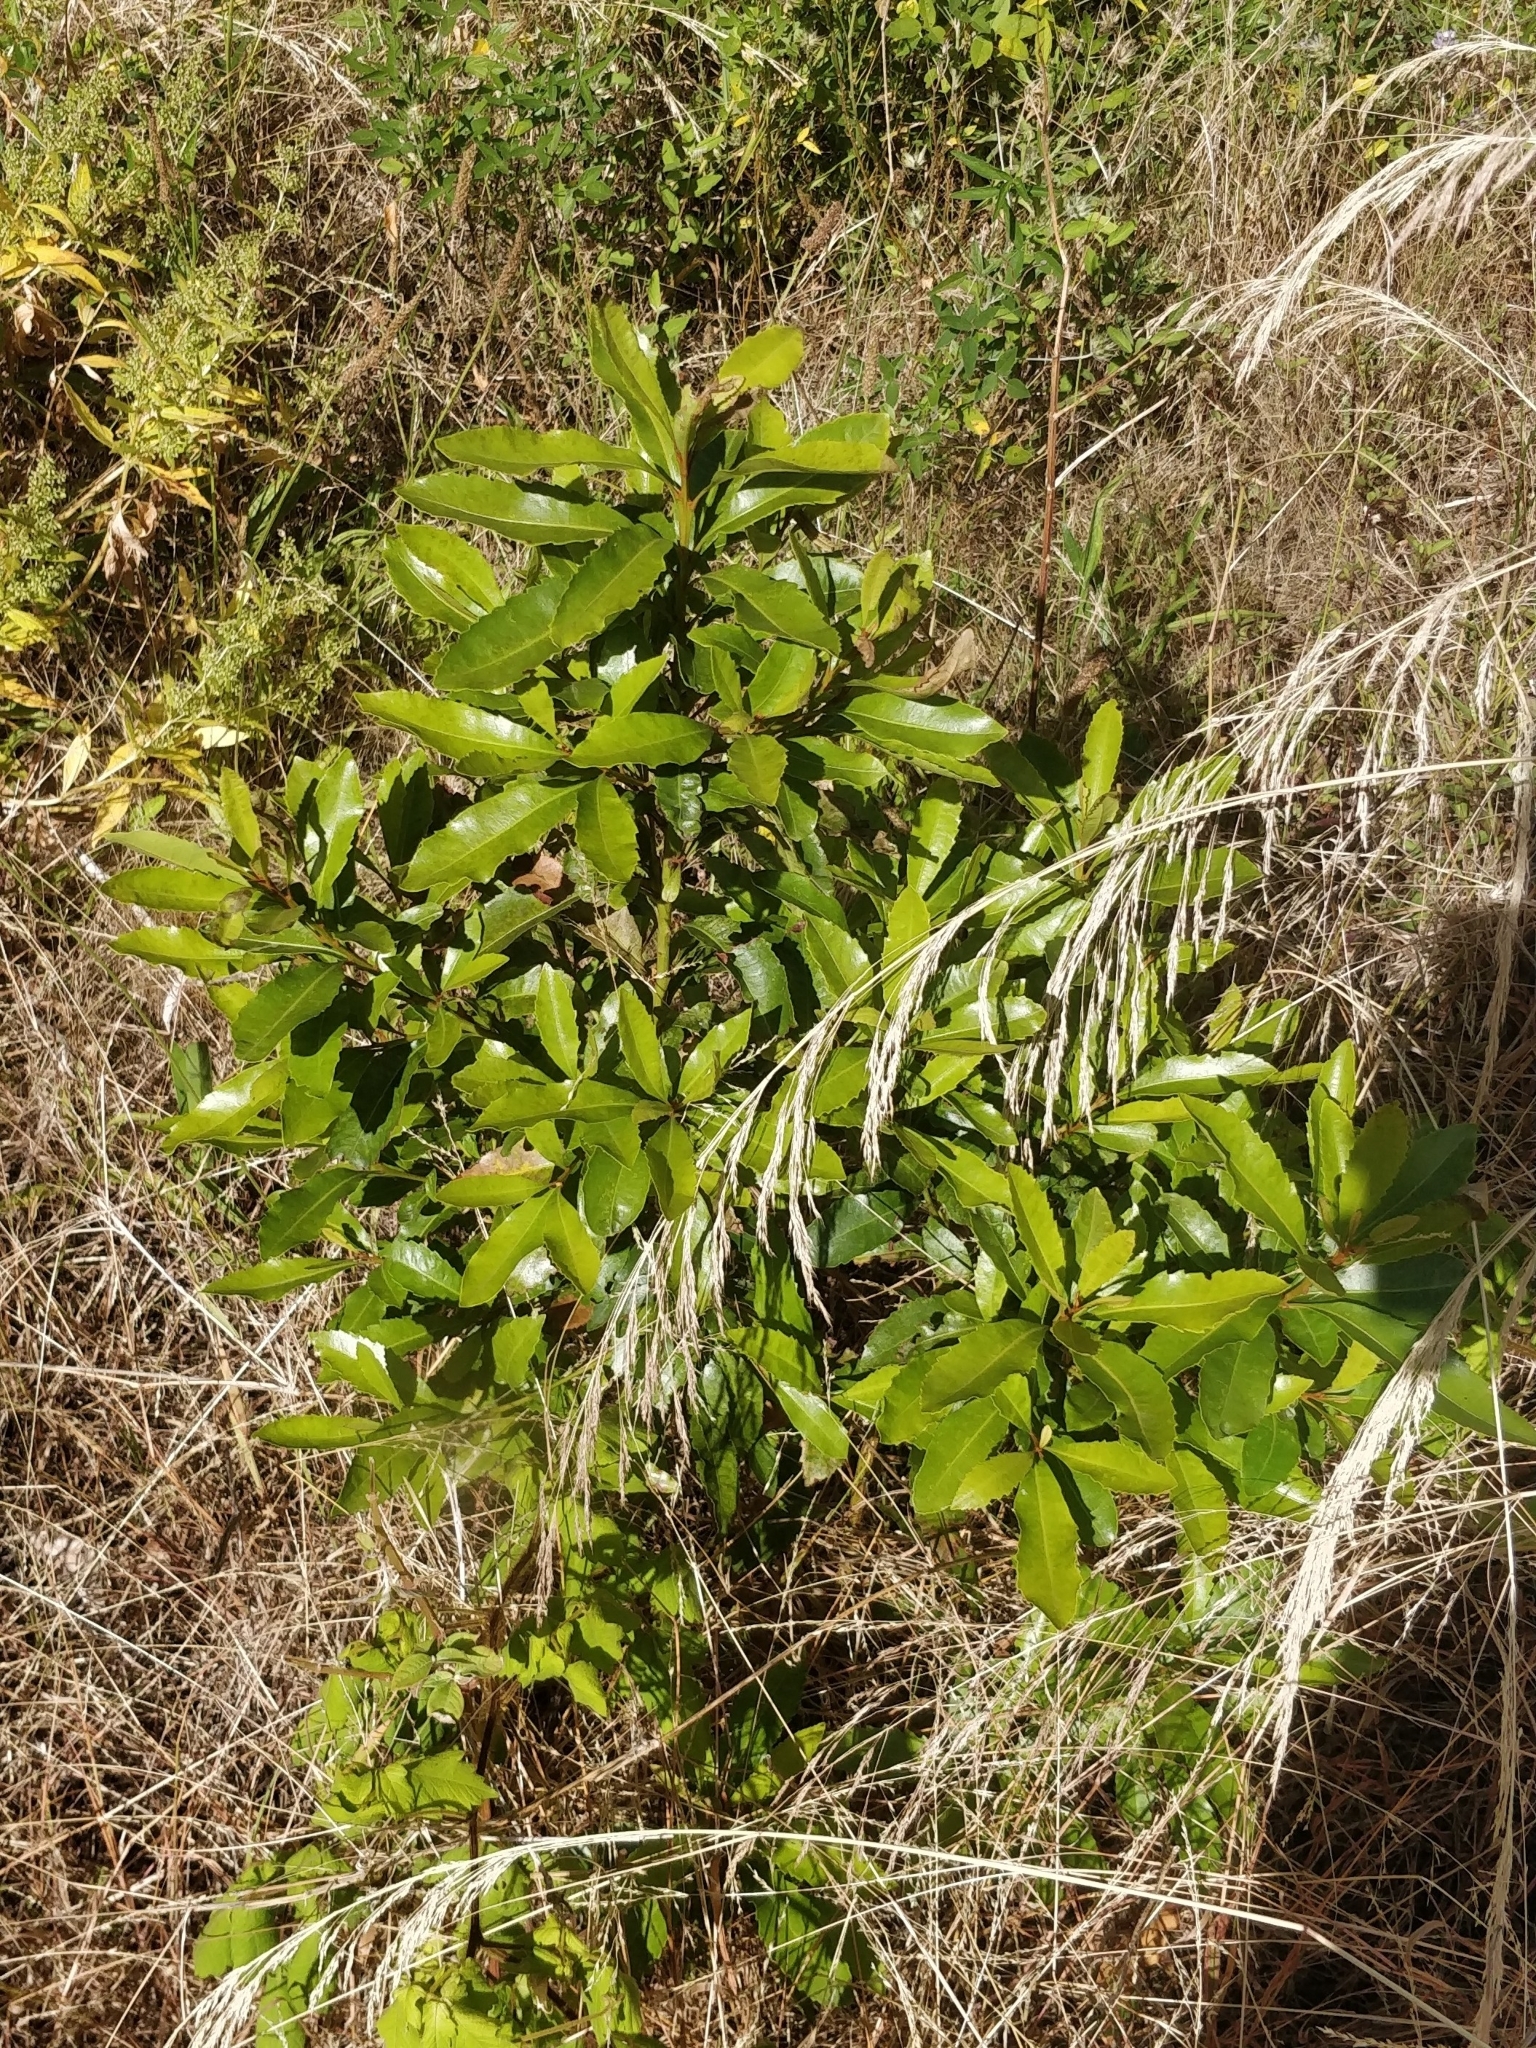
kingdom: Plantae
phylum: Tracheophyta
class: Magnoliopsida
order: Fagales
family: Myricaceae
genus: Morella
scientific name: Morella faya
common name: Firetree
